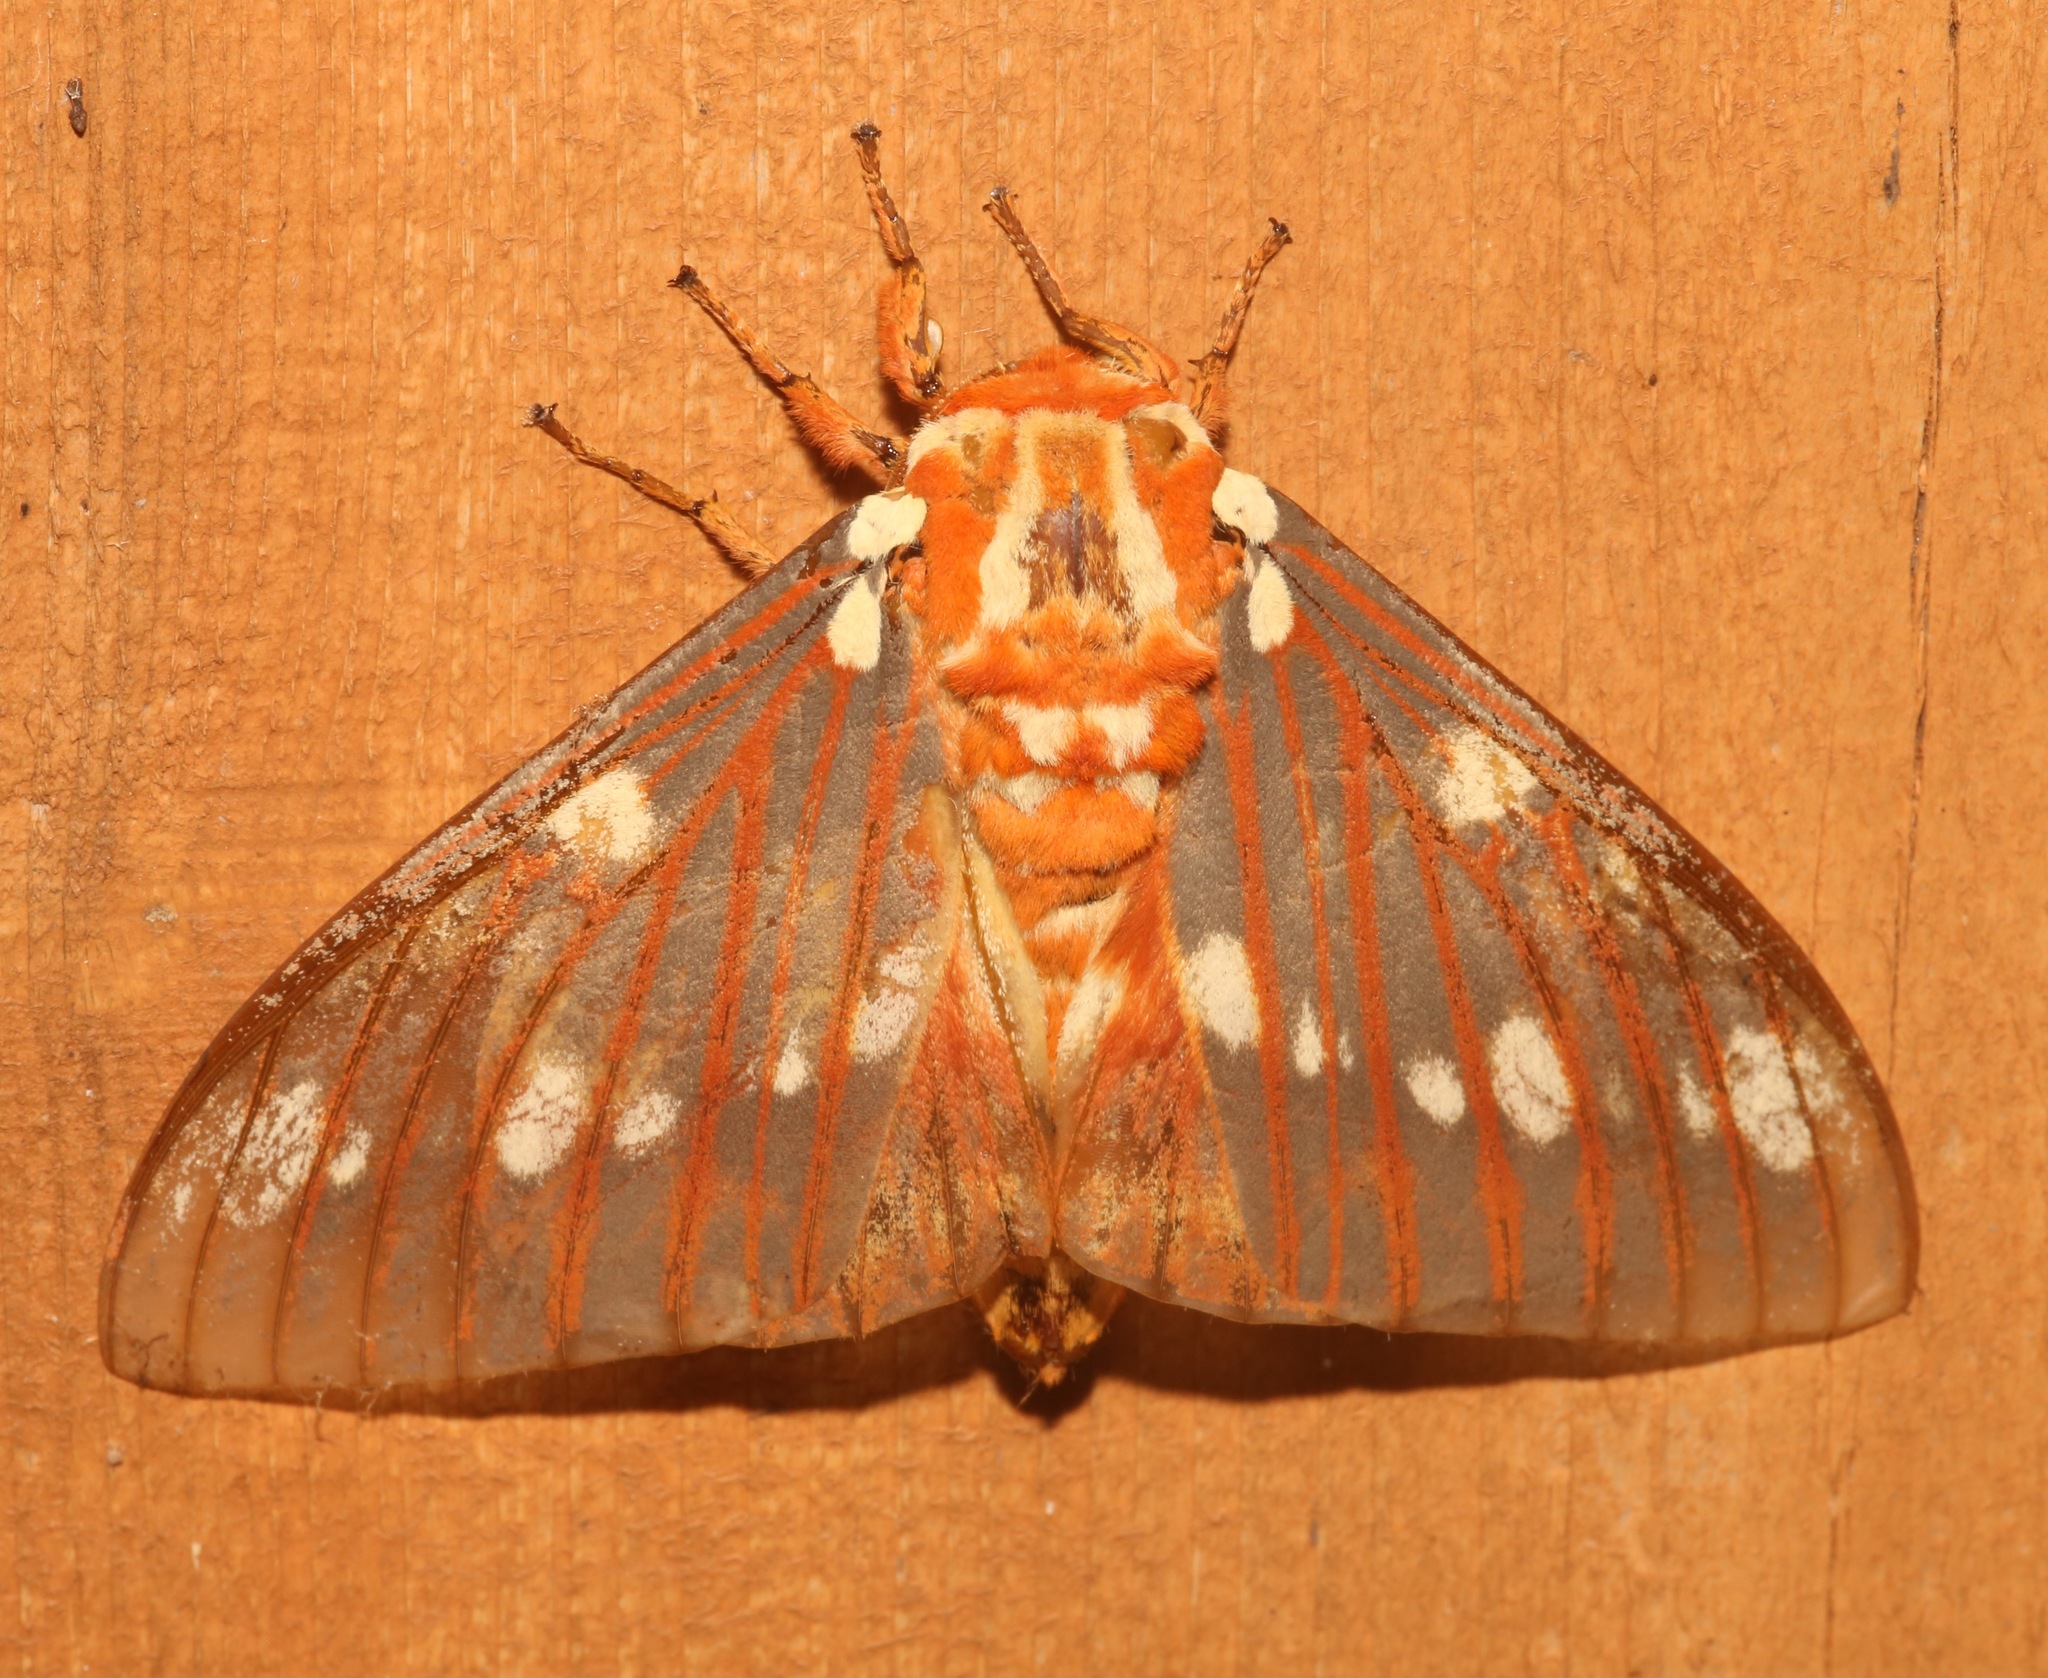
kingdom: Animalia
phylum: Arthropoda
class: Insecta
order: Lepidoptera
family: Saturniidae
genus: Citheronia
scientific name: Citheronia regalis
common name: Hickory horned devil
